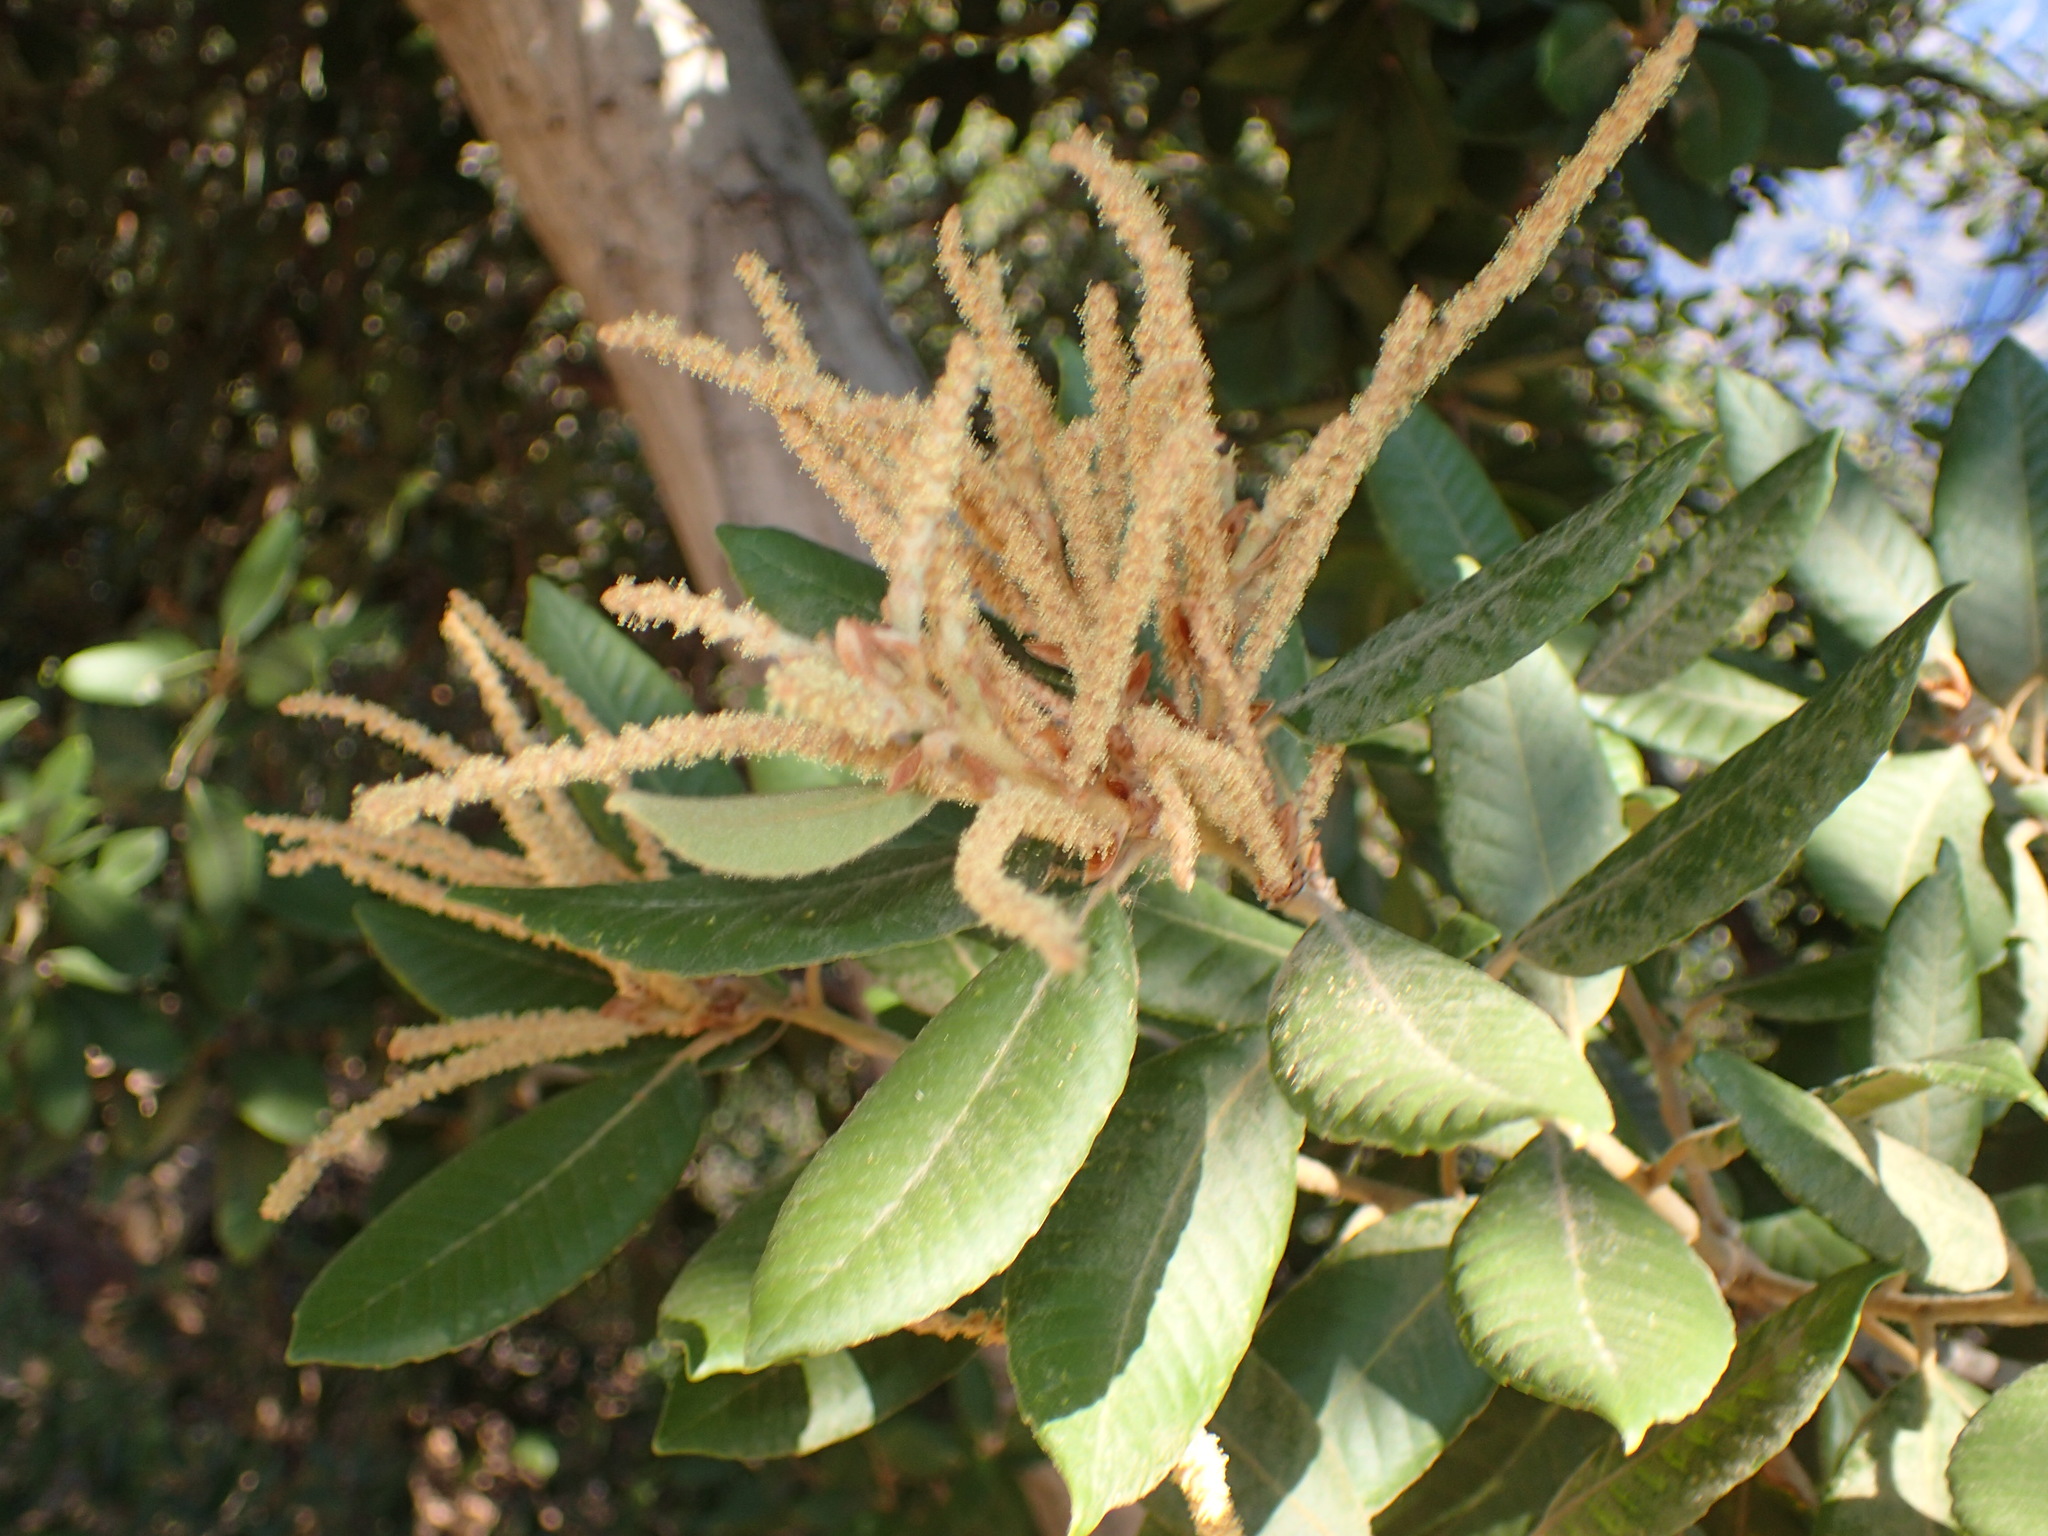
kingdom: Plantae
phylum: Tracheophyta
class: Magnoliopsida
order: Fagales
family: Fagaceae
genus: Notholithocarpus
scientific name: Notholithocarpus densiflorus
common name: Tan bark oak
